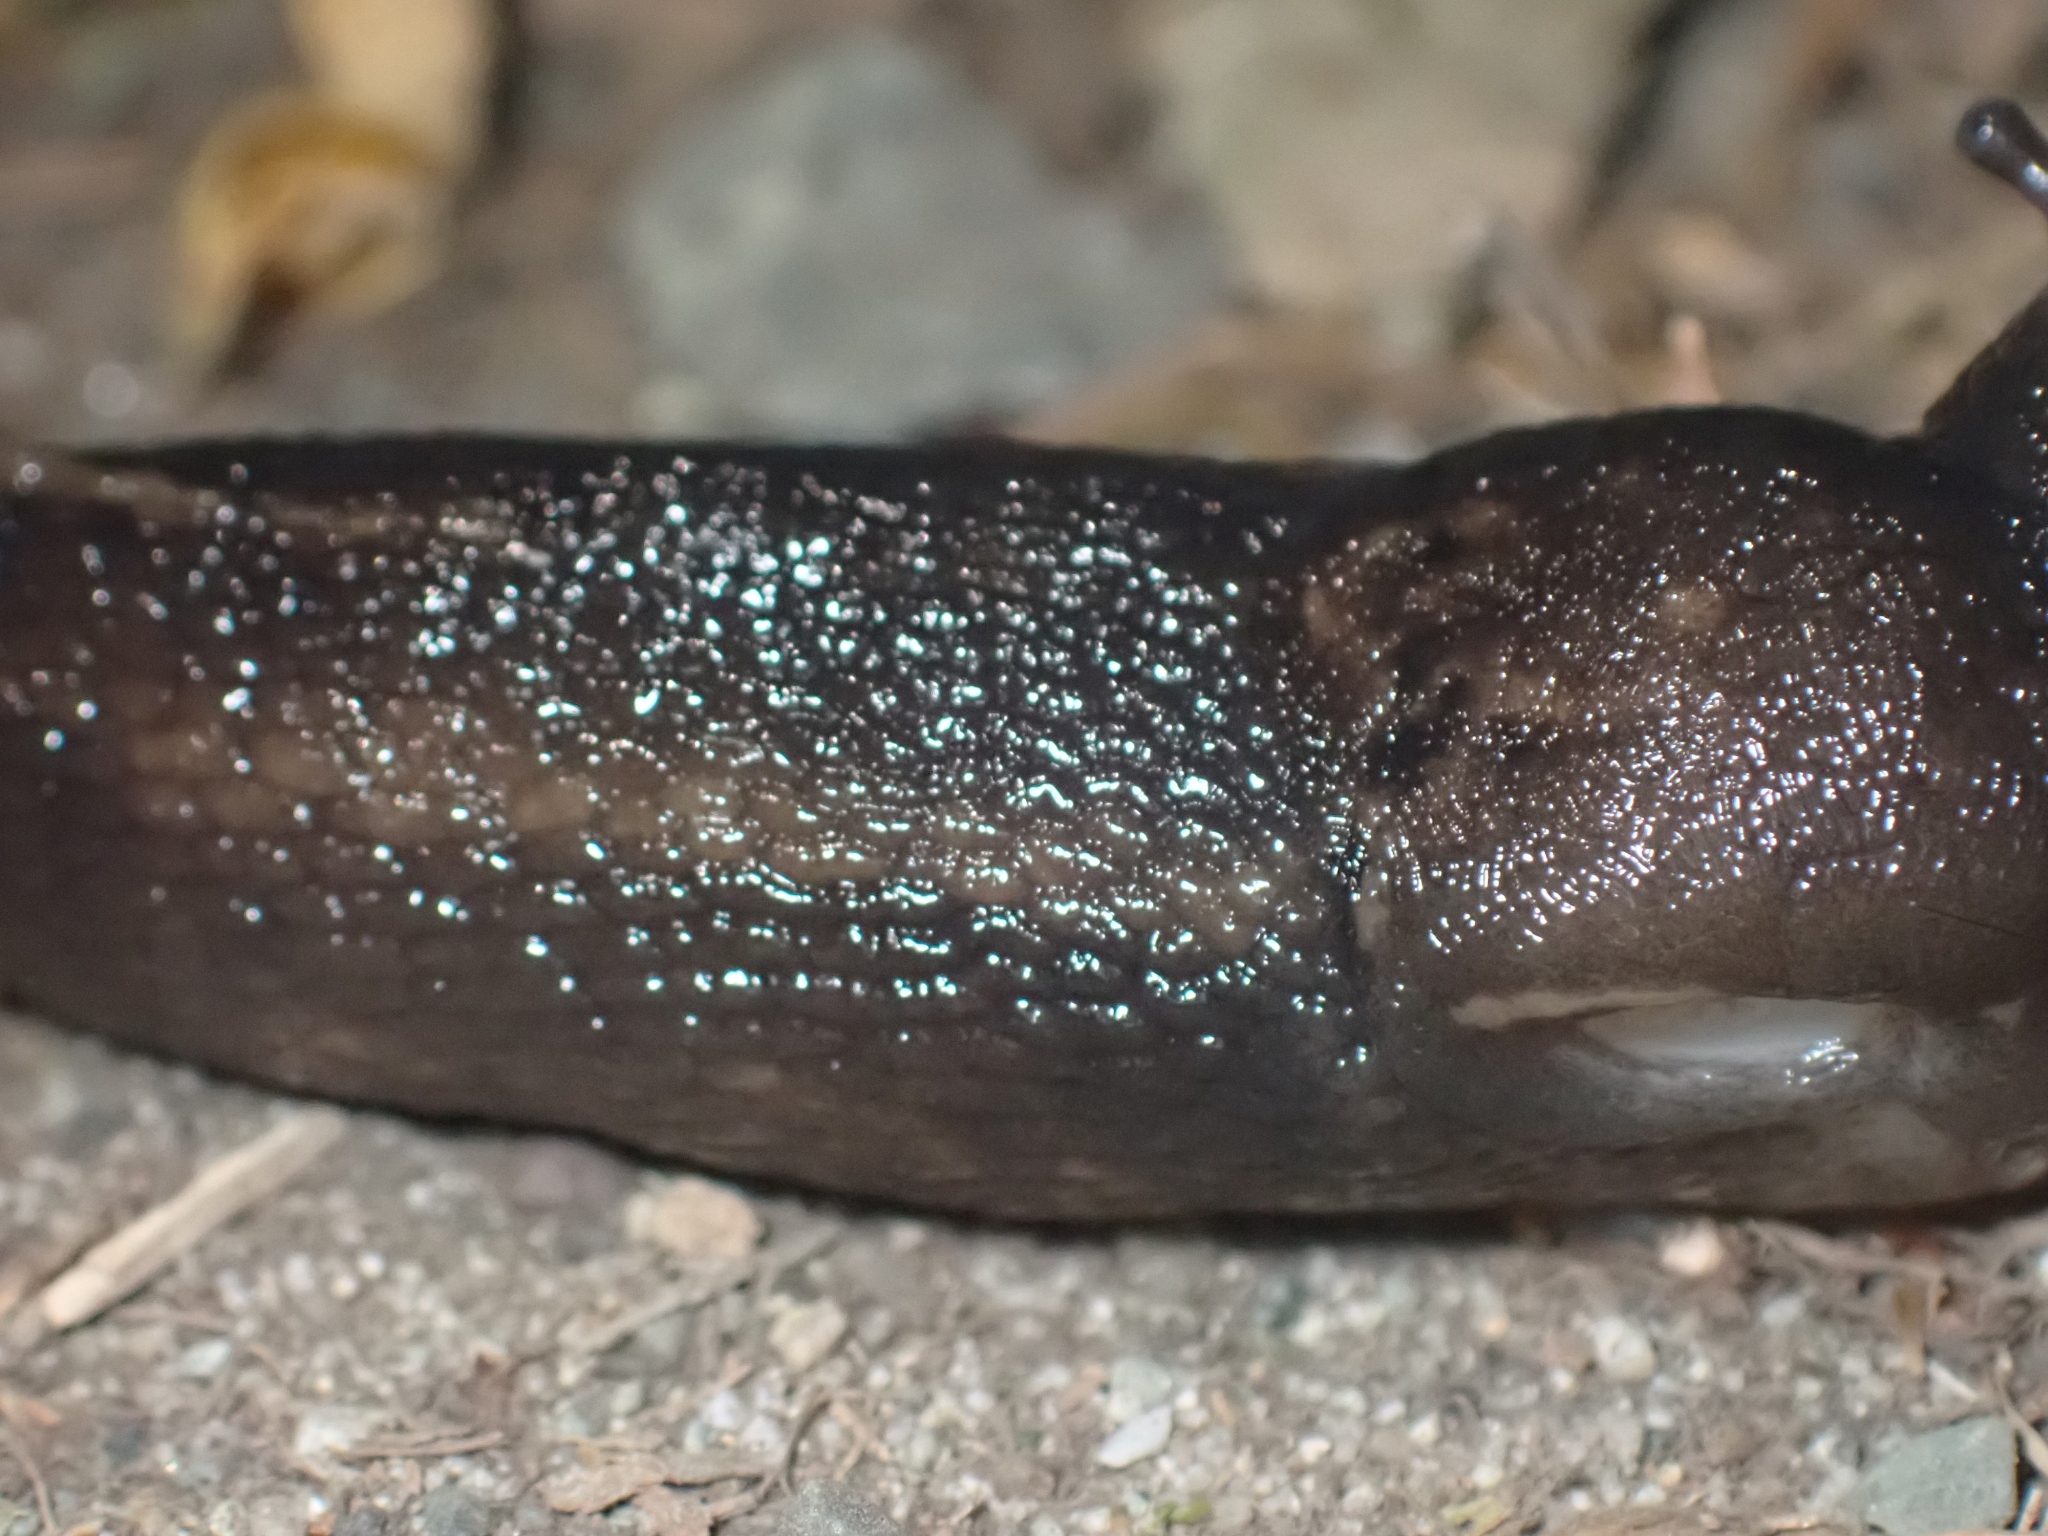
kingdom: Animalia
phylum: Mollusca
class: Gastropoda
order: Stylommatophora
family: Limacidae
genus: Limax
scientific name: Limax maximus
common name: Great grey slug
